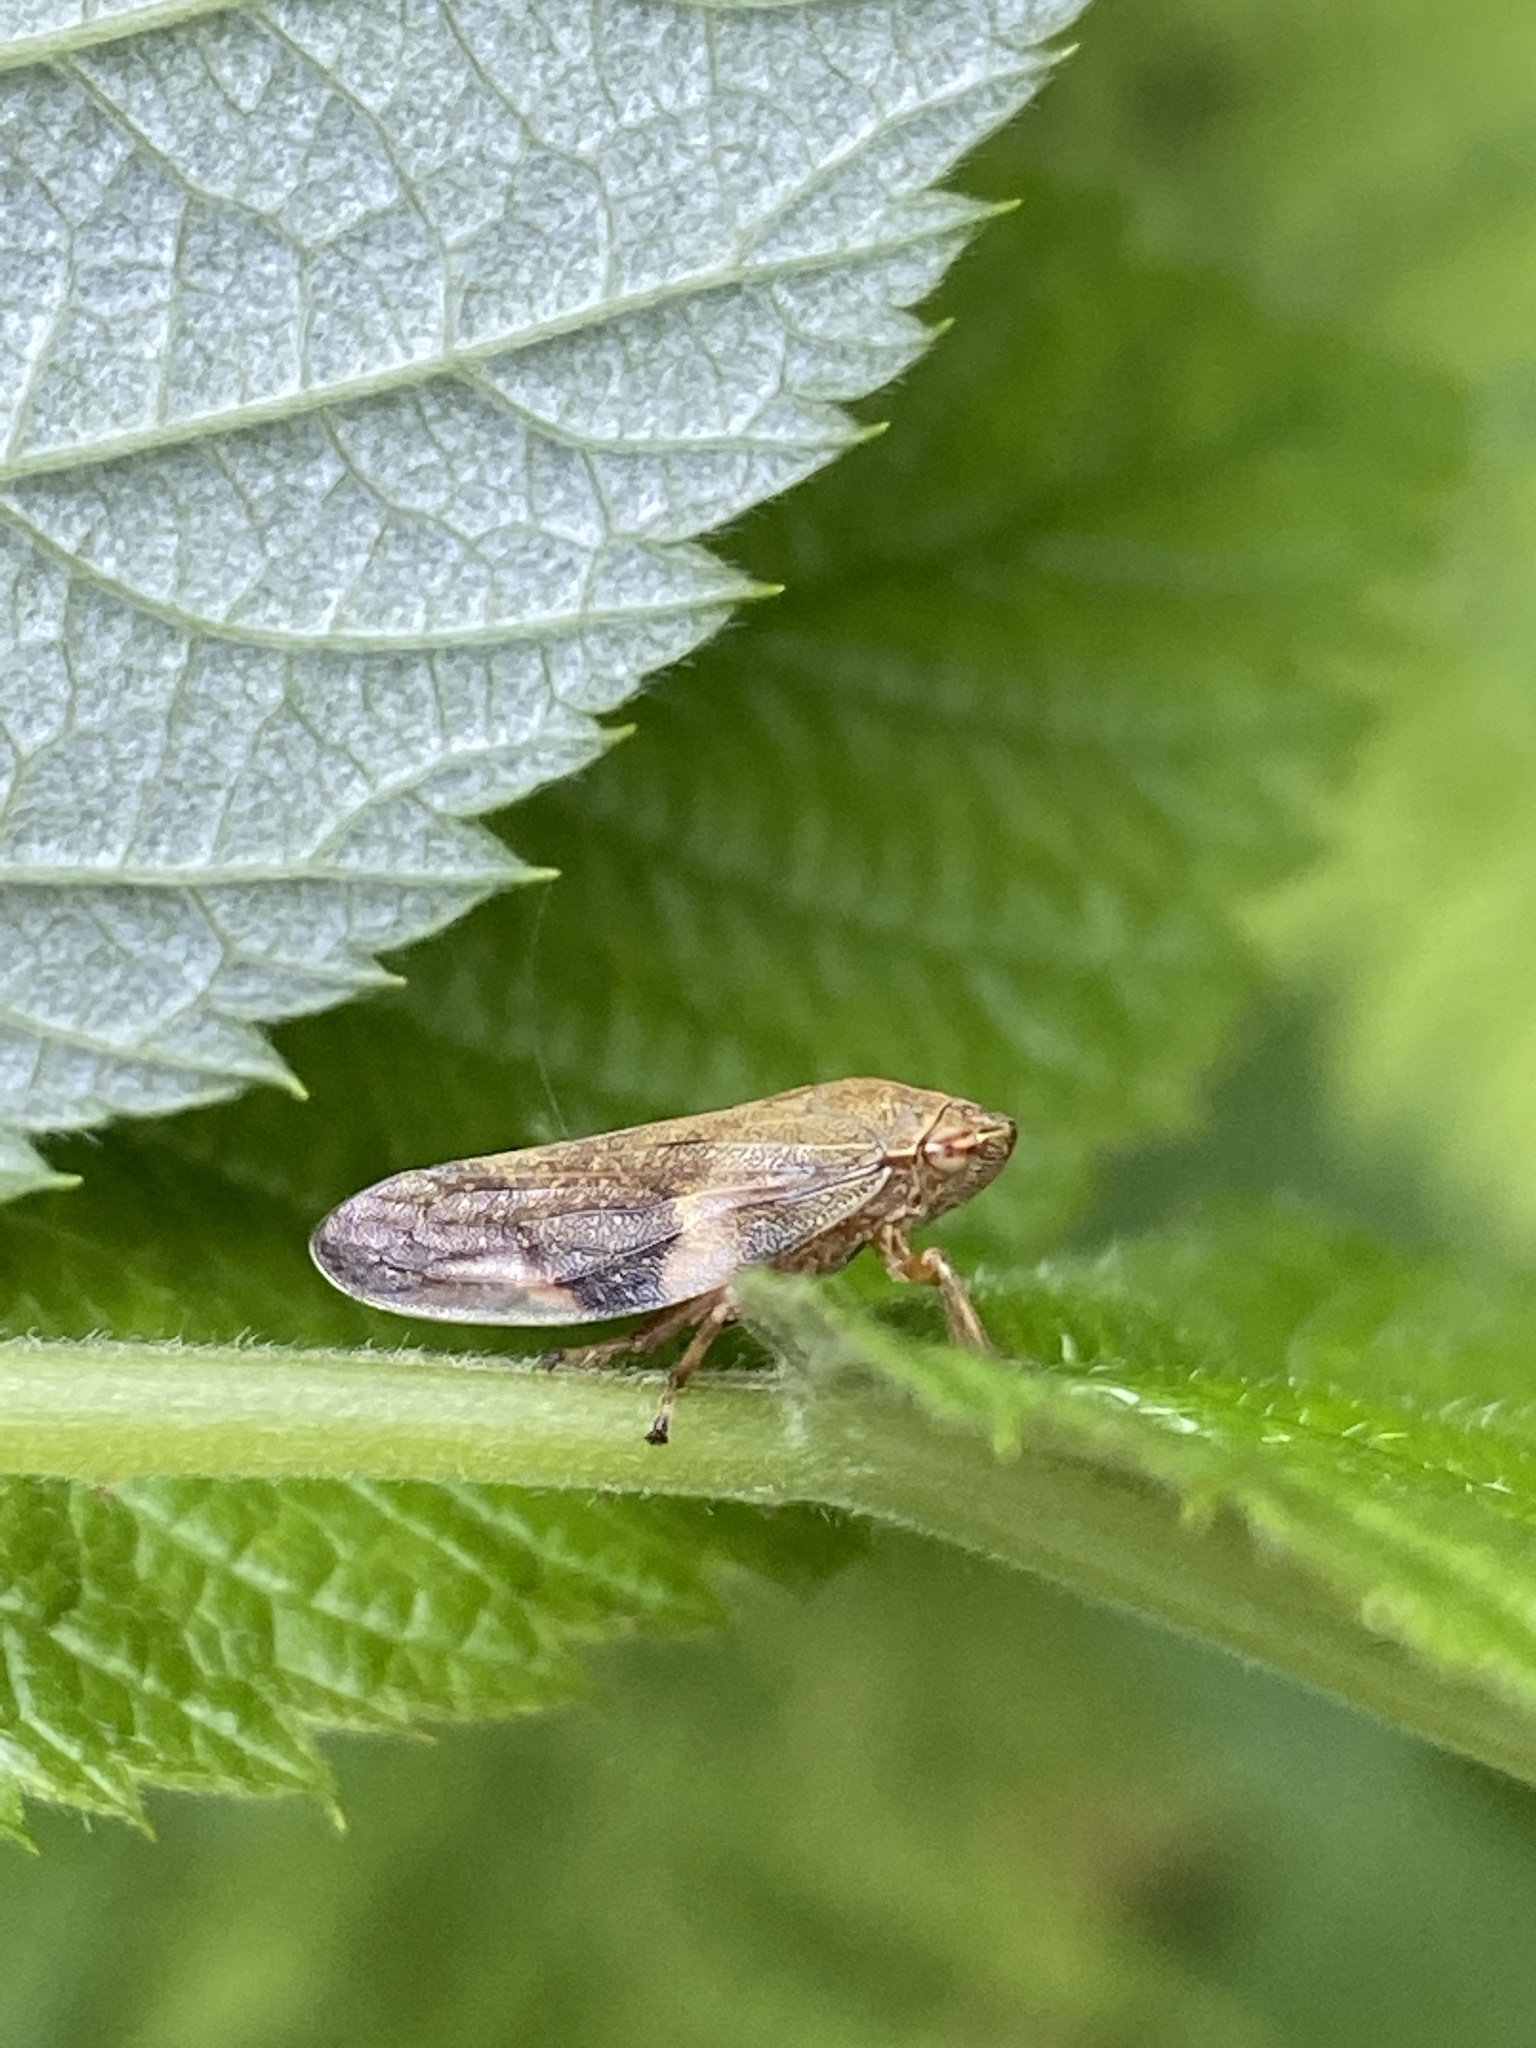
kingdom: Animalia
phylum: Arthropoda
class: Insecta
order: Hemiptera
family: Aphrophoridae
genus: Aphrophora
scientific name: Aphrophora alni
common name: European alder spittlebug
